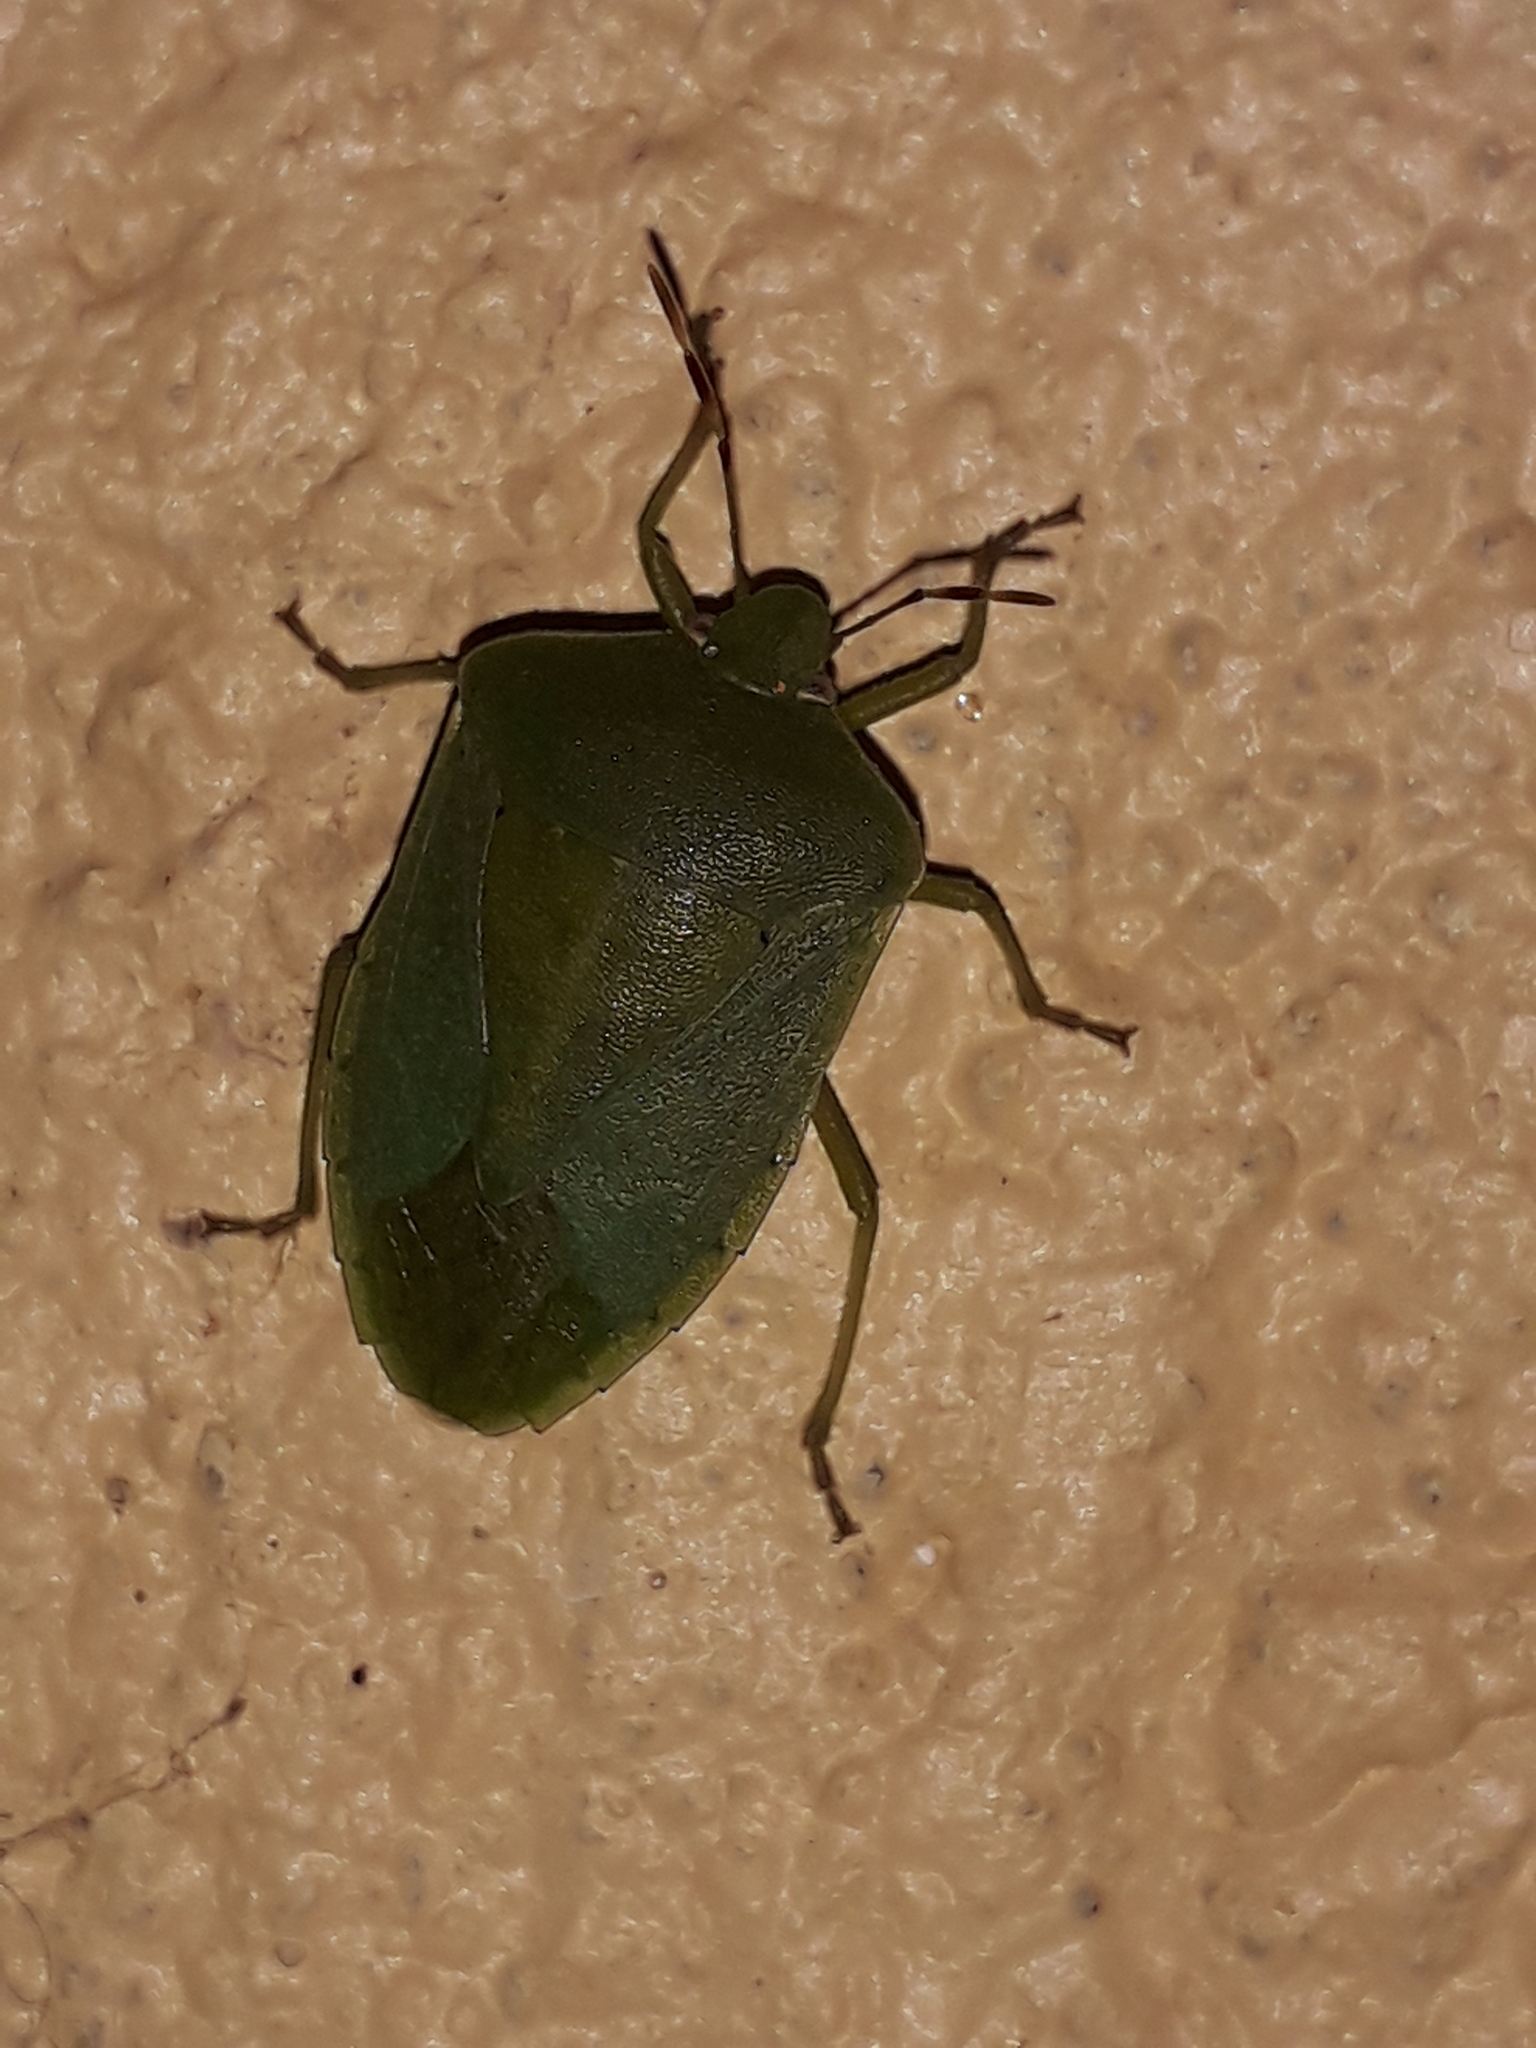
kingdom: Animalia
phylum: Arthropoda
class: Insecta
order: Hemiptera
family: Pentatomidae
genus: Nezara
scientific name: Nezara viridula
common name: Southern green stink bug
